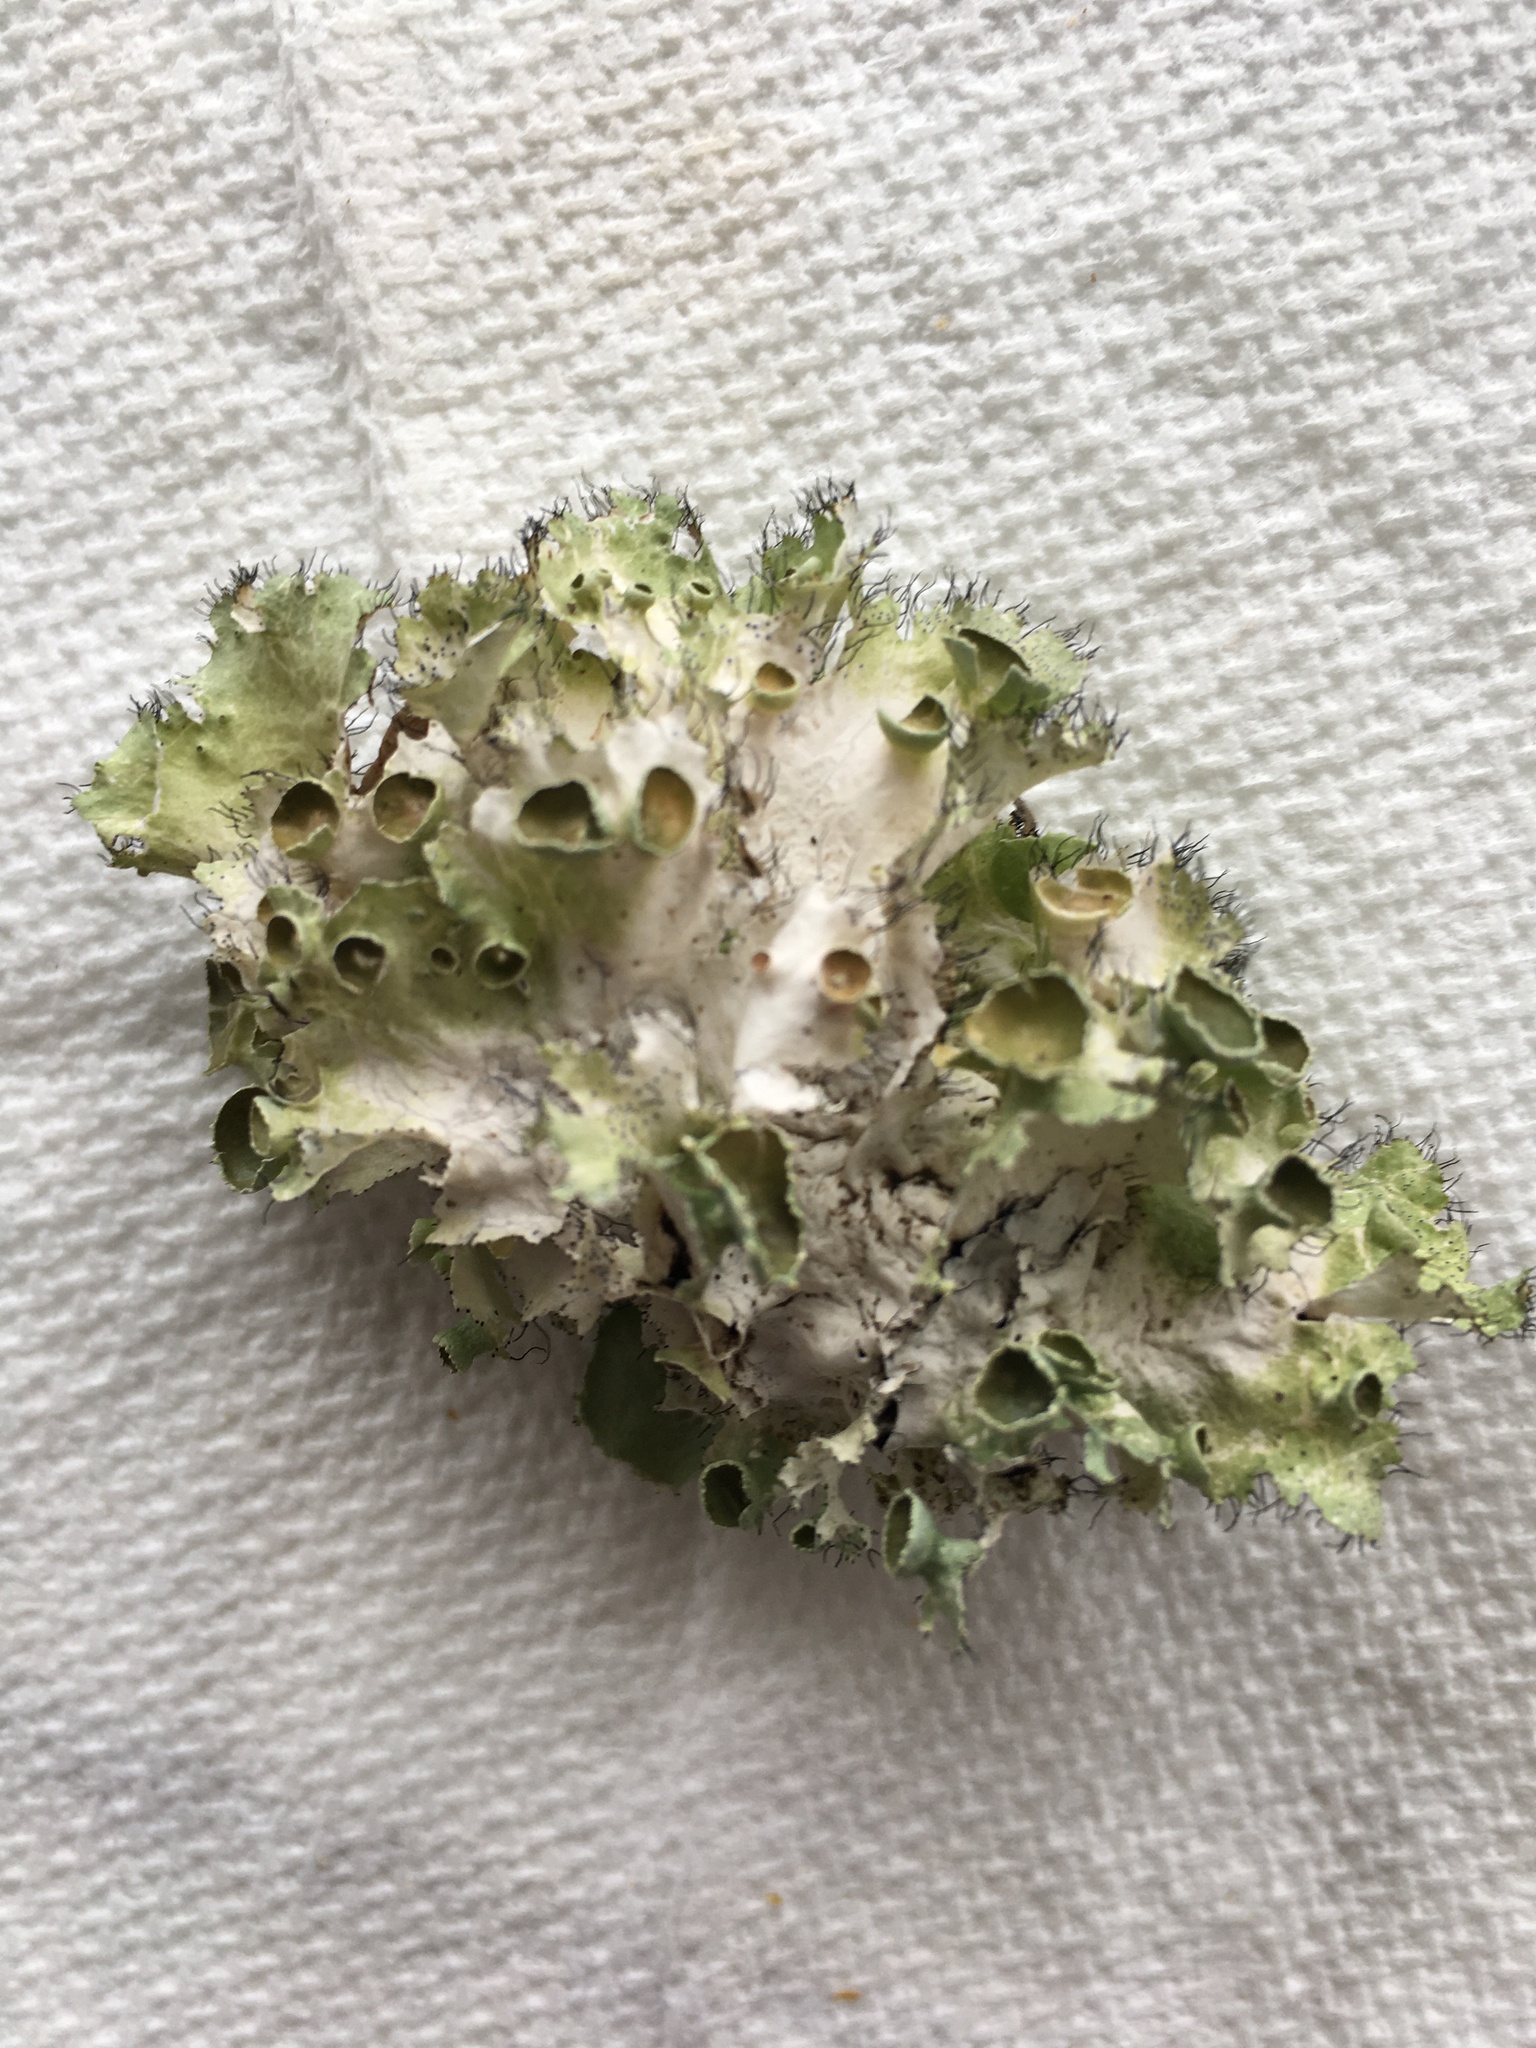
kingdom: Fungi
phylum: Ascomycota
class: Lecanoromycetes
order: Lecanorales
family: Parmeliaceae
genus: Parmotrema
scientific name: Parmotrema subrigidum
